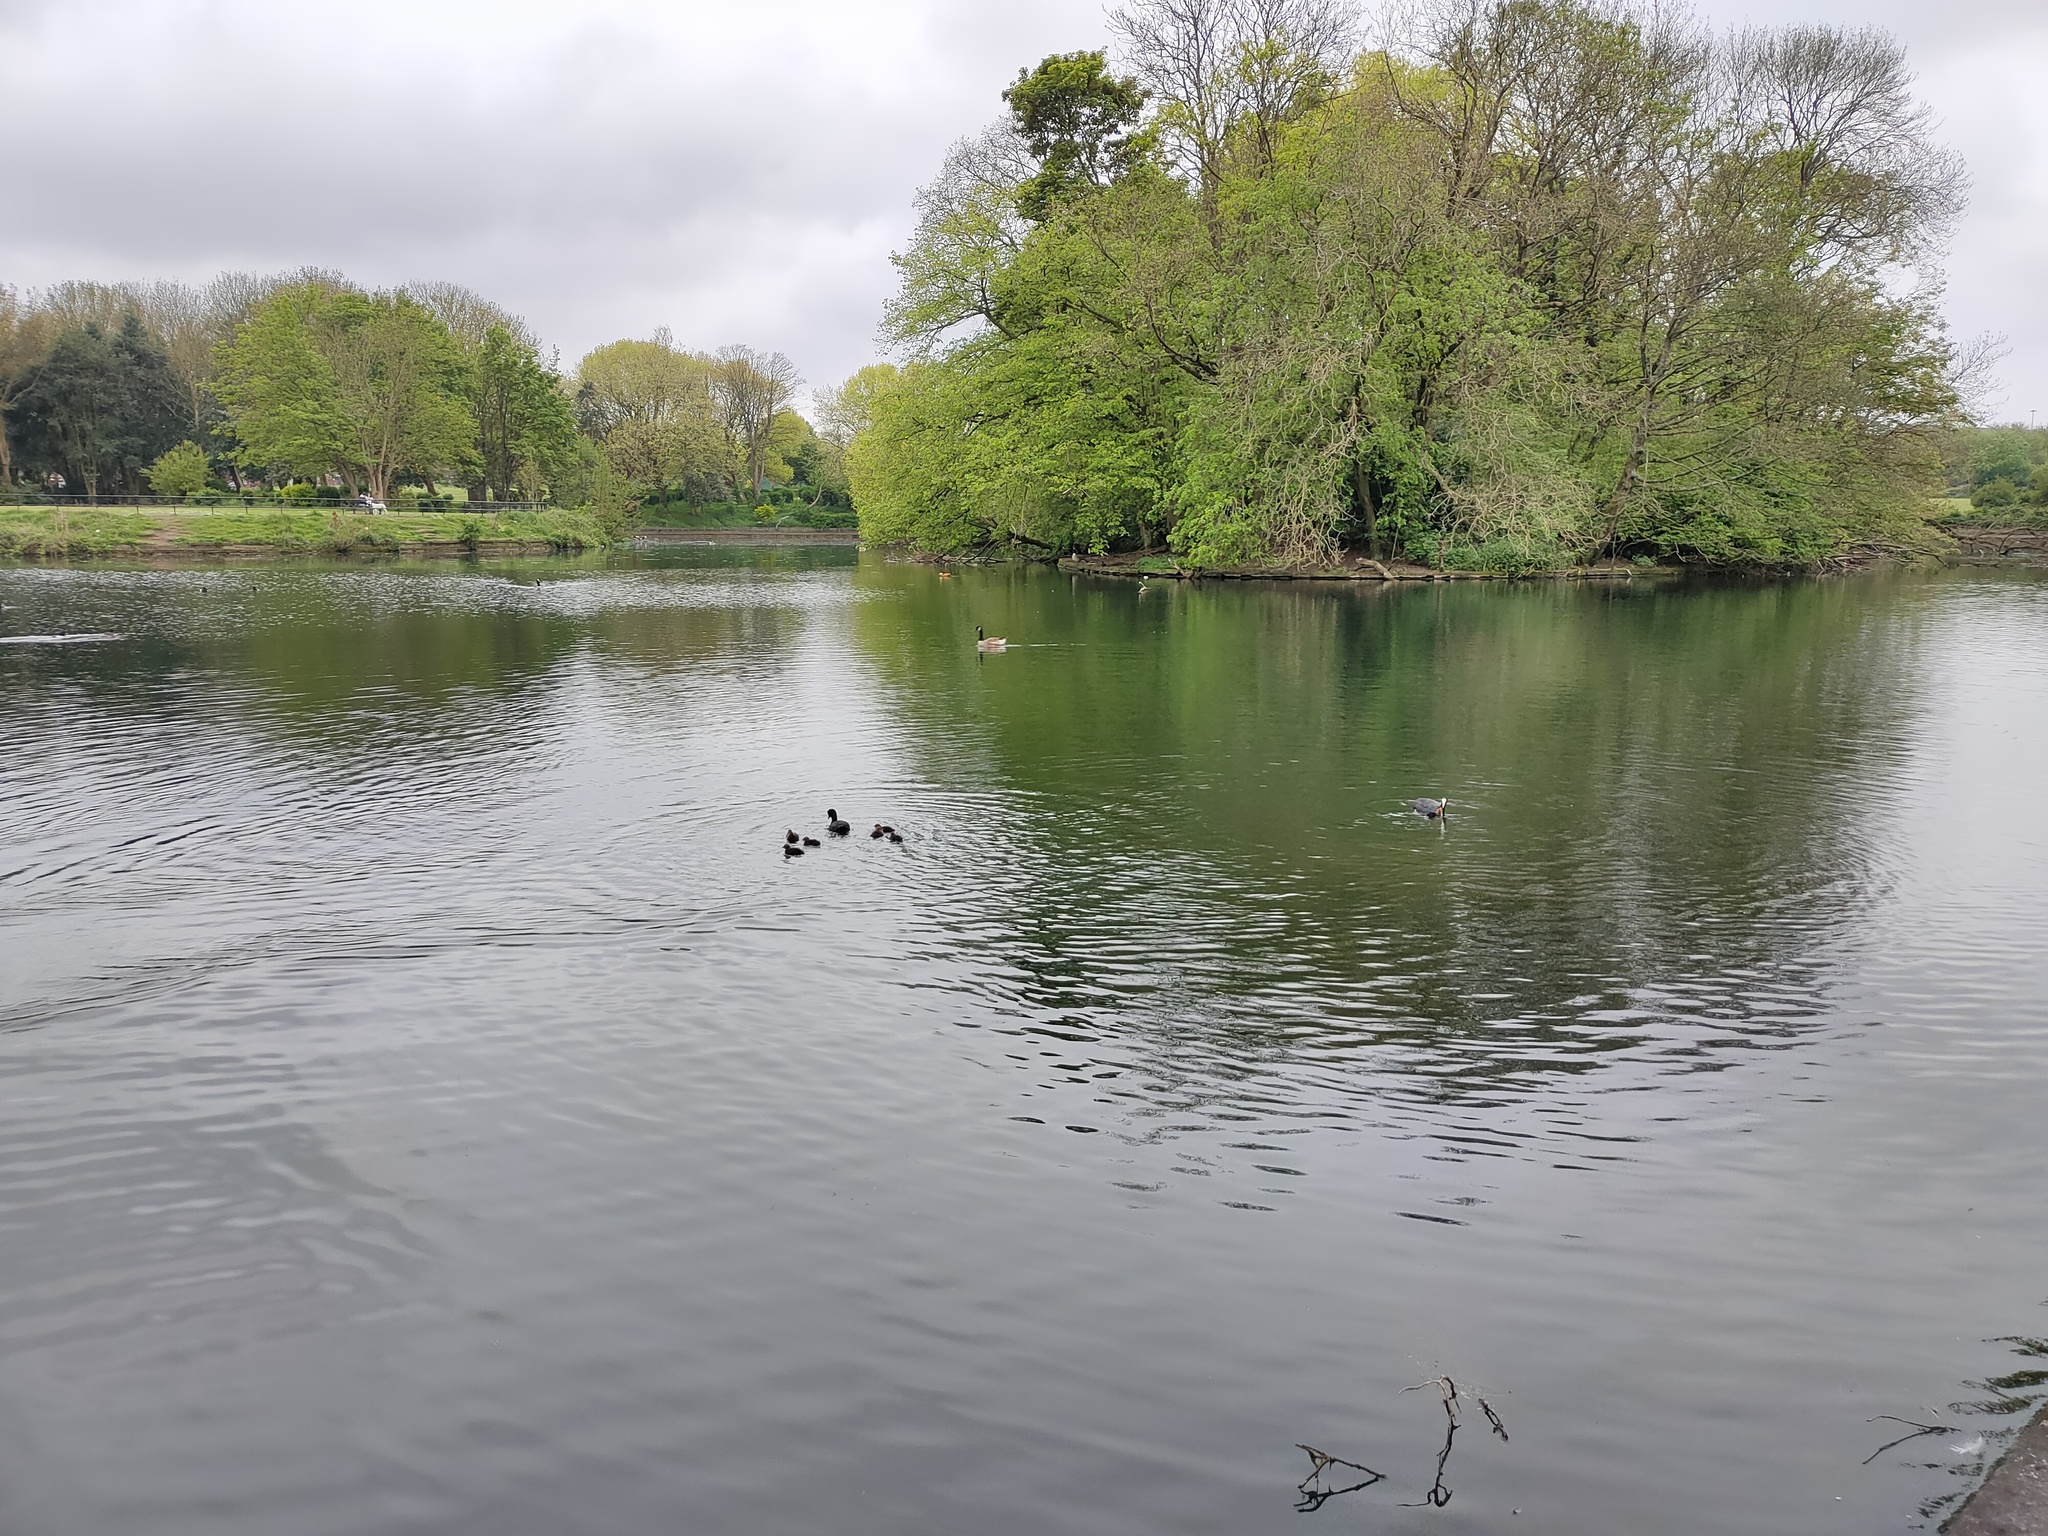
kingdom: Animalia
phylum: Chordata
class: Aves
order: Gruiformes
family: Rallidae
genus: Fulica
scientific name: Fulica atra
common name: Eurasian coot
